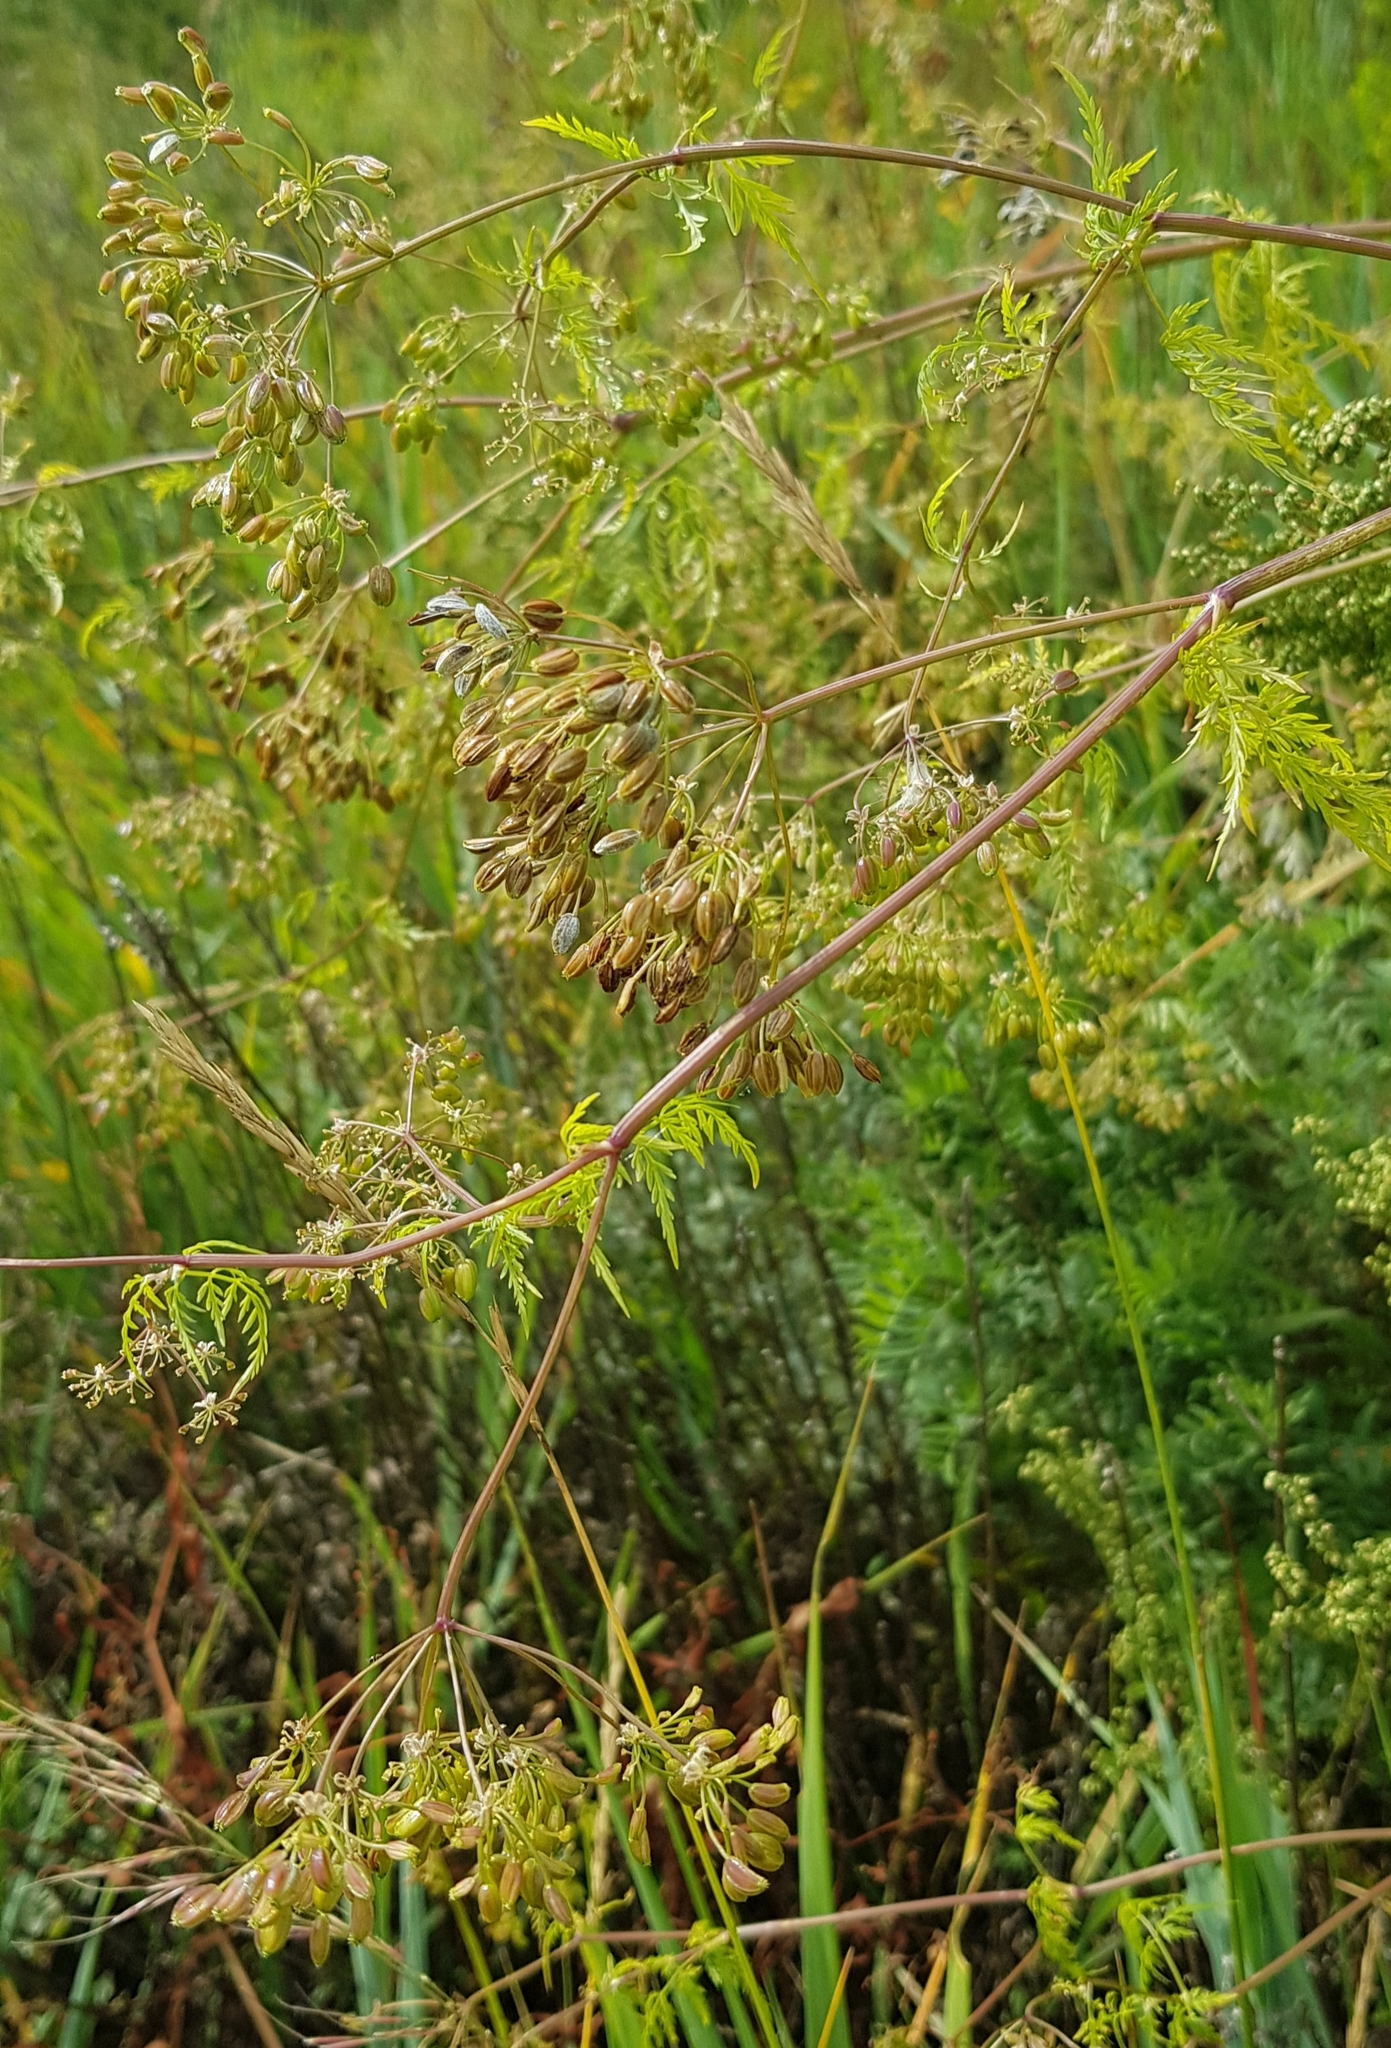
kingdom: Plantae
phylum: Tracheophyta
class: Magnoliopsida
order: Apiales
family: Apiaceae
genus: Sphallerocarpus
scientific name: Sphallerocarpus gracilis
